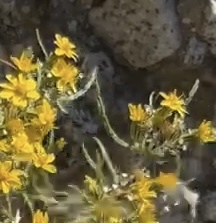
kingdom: Plantae
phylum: Tracheophyta
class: Magnoliopsida
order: Asterales
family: Asteraceae
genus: Pectis
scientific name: Pectis papposa
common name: Many-bristle chinchweed
